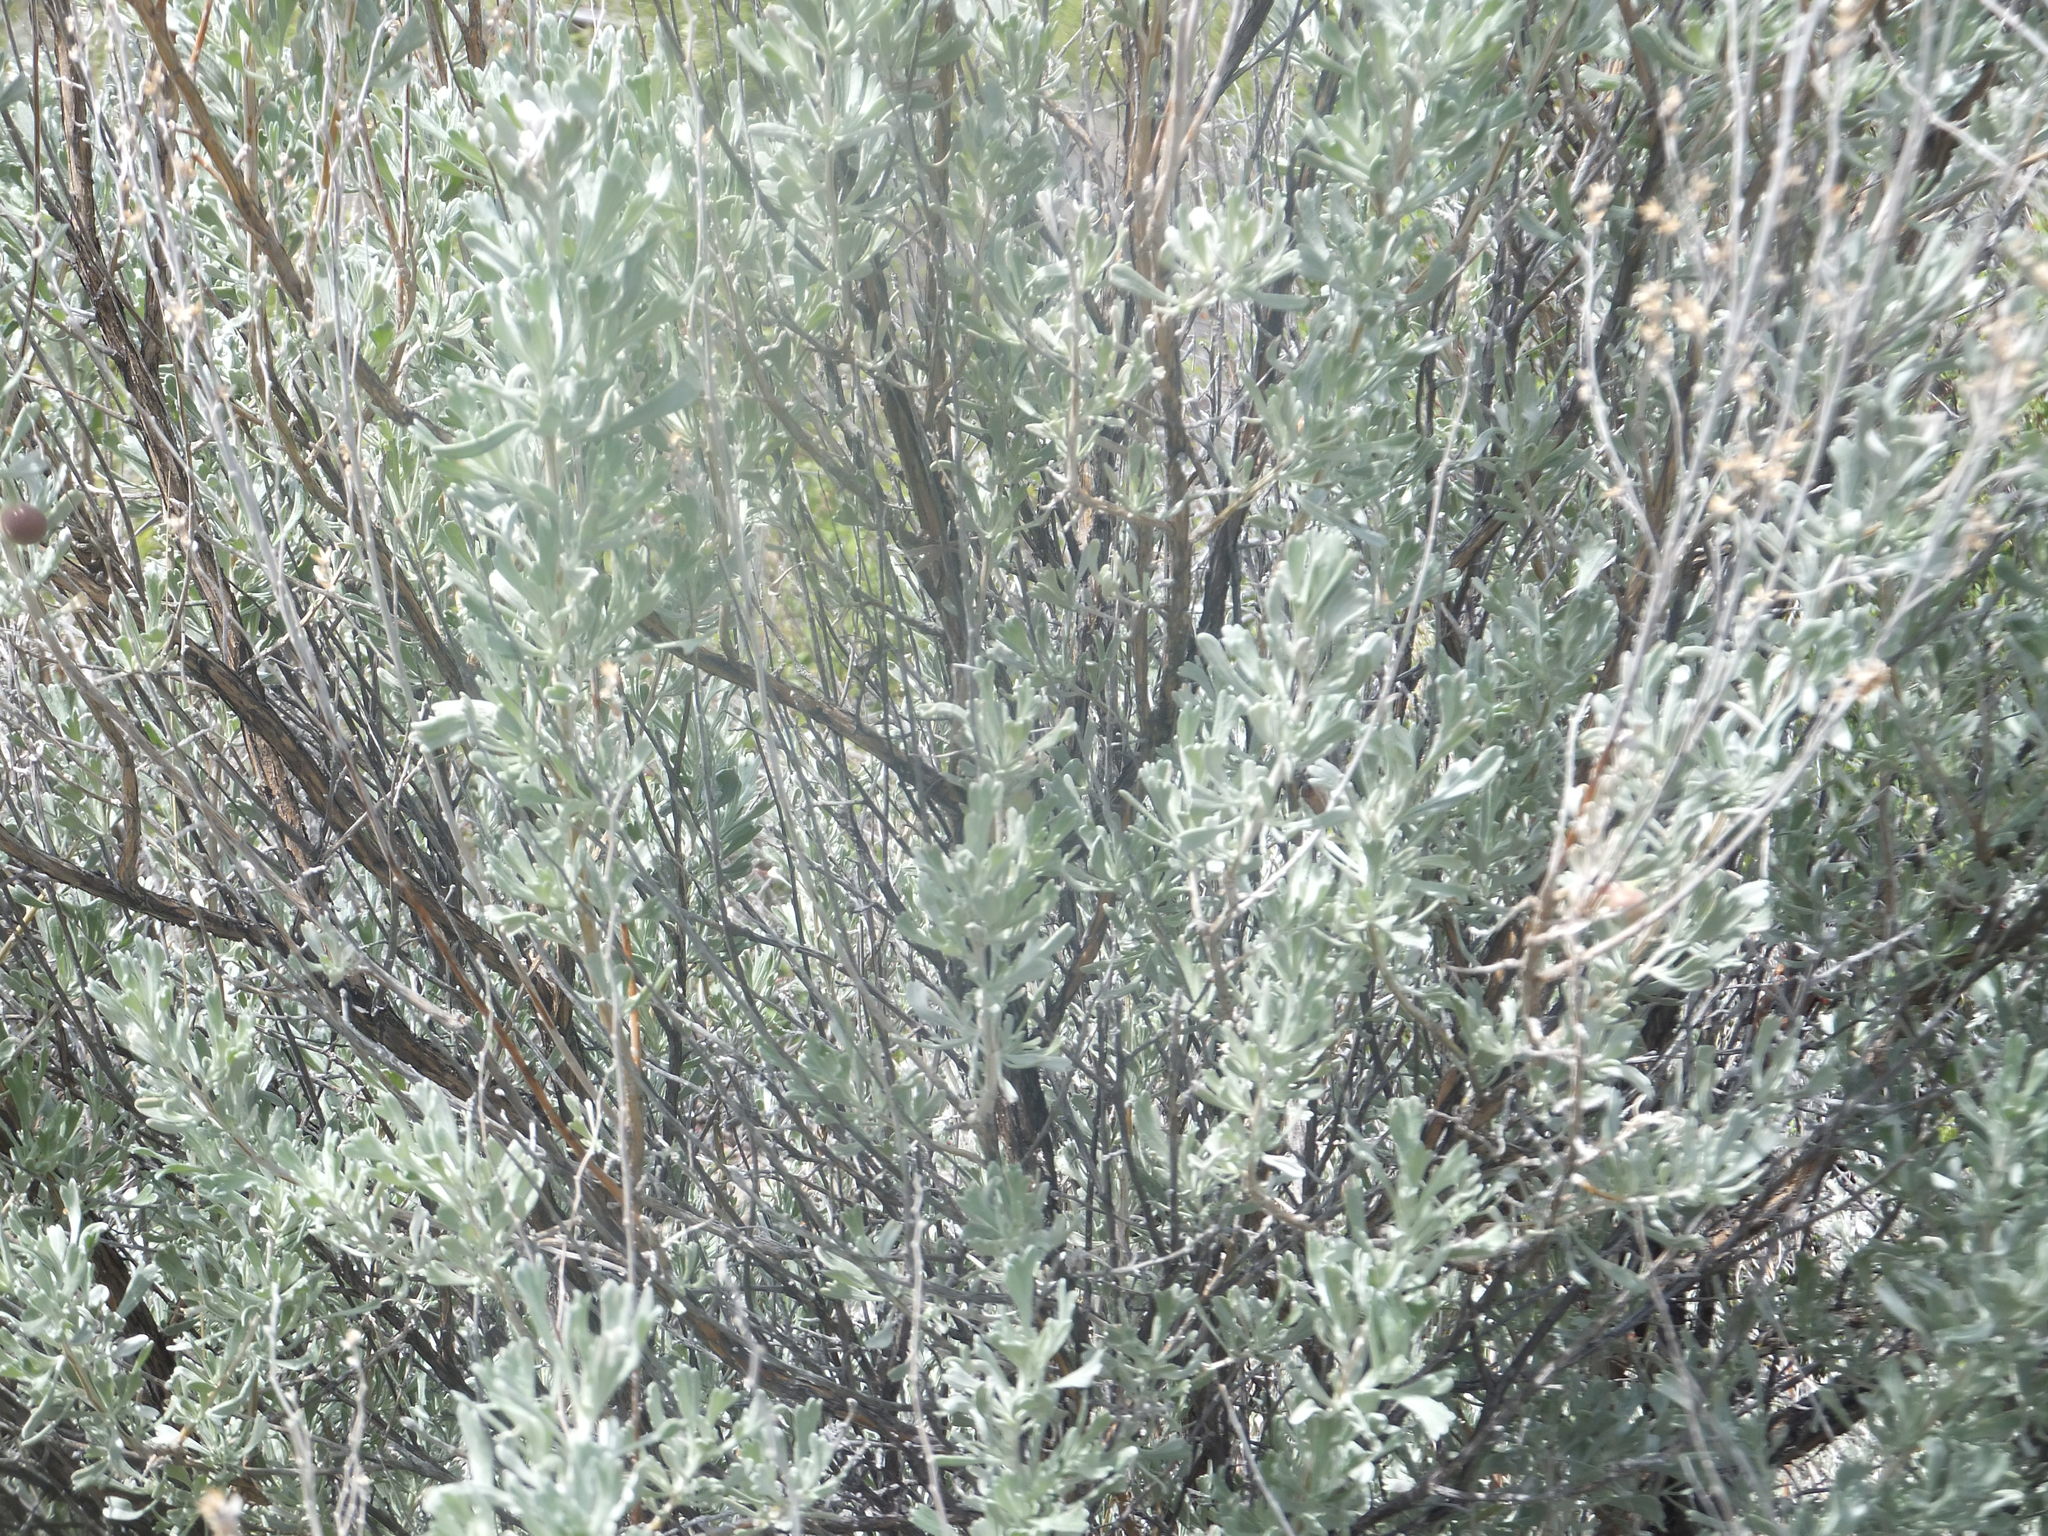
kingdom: Plantae
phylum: Tracheophyta
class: Magnoliopsida
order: Asterales
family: Asteraceae
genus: Artemisia
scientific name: Artemisia tridentata
